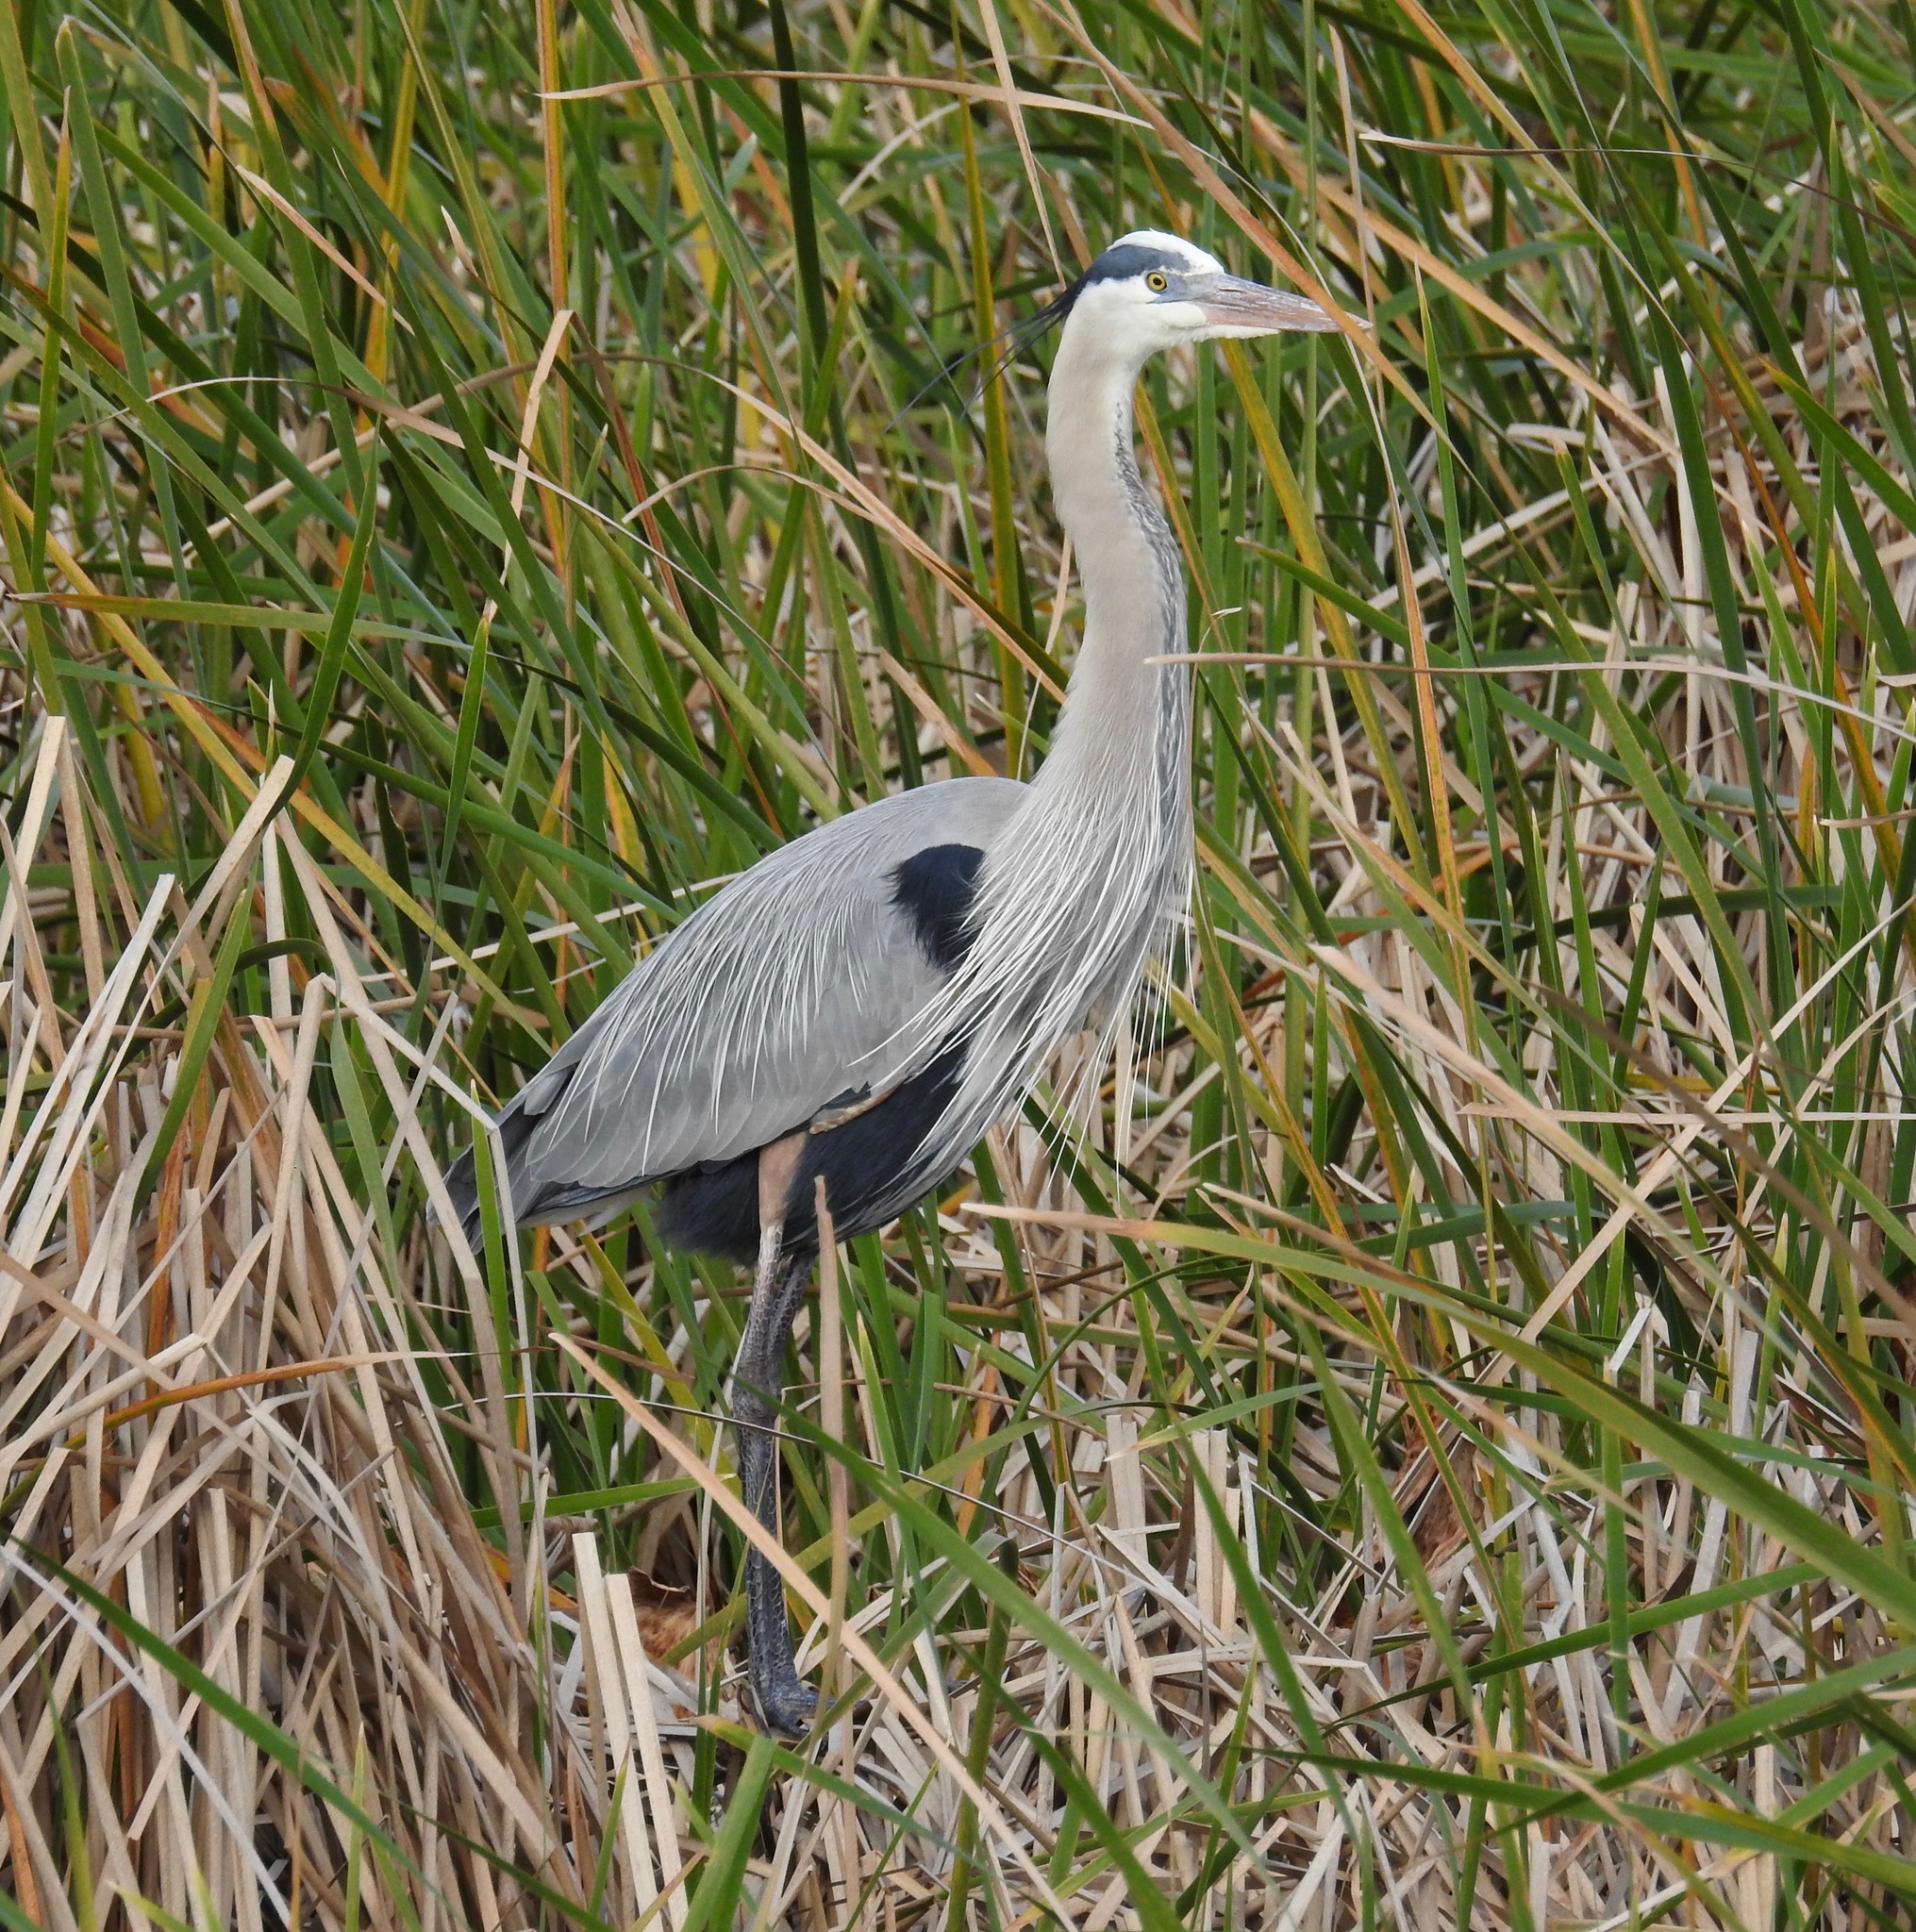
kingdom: Animalia
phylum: Chordata
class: Aves
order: Pelecaniformes
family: Ardeidae
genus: Ardea
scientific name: Ardea herodias
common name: Great blue heron
